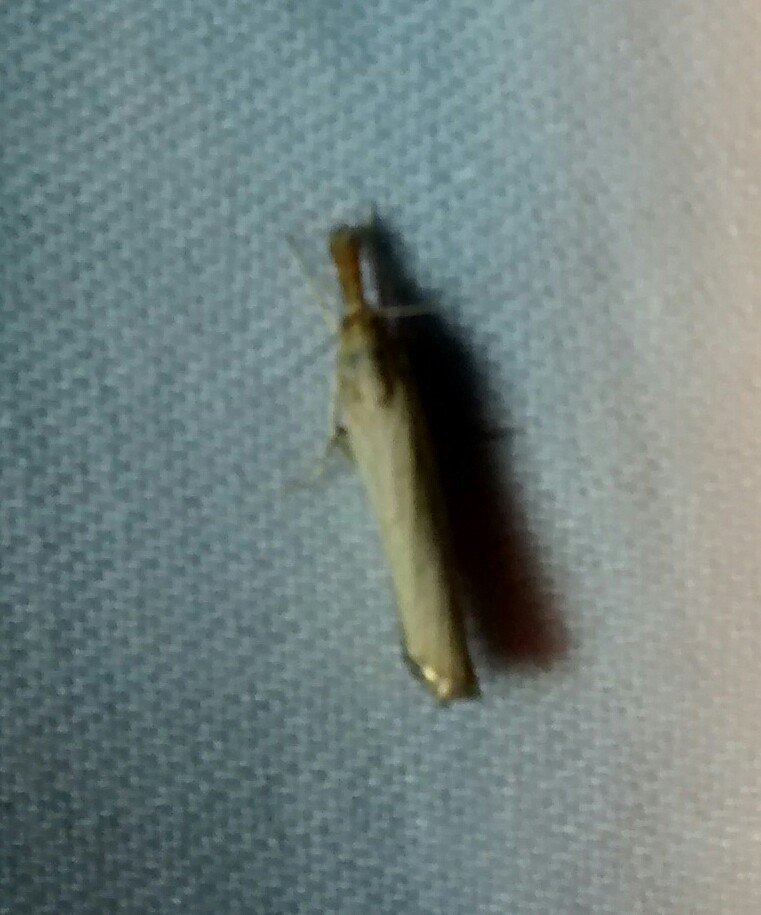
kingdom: Animalia
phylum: Arthropoda
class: Insecta
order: Lepidoptera
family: Crambidae
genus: Agriphila
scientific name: Agriphila vulgivagellus
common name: Vagabond crambus moth
